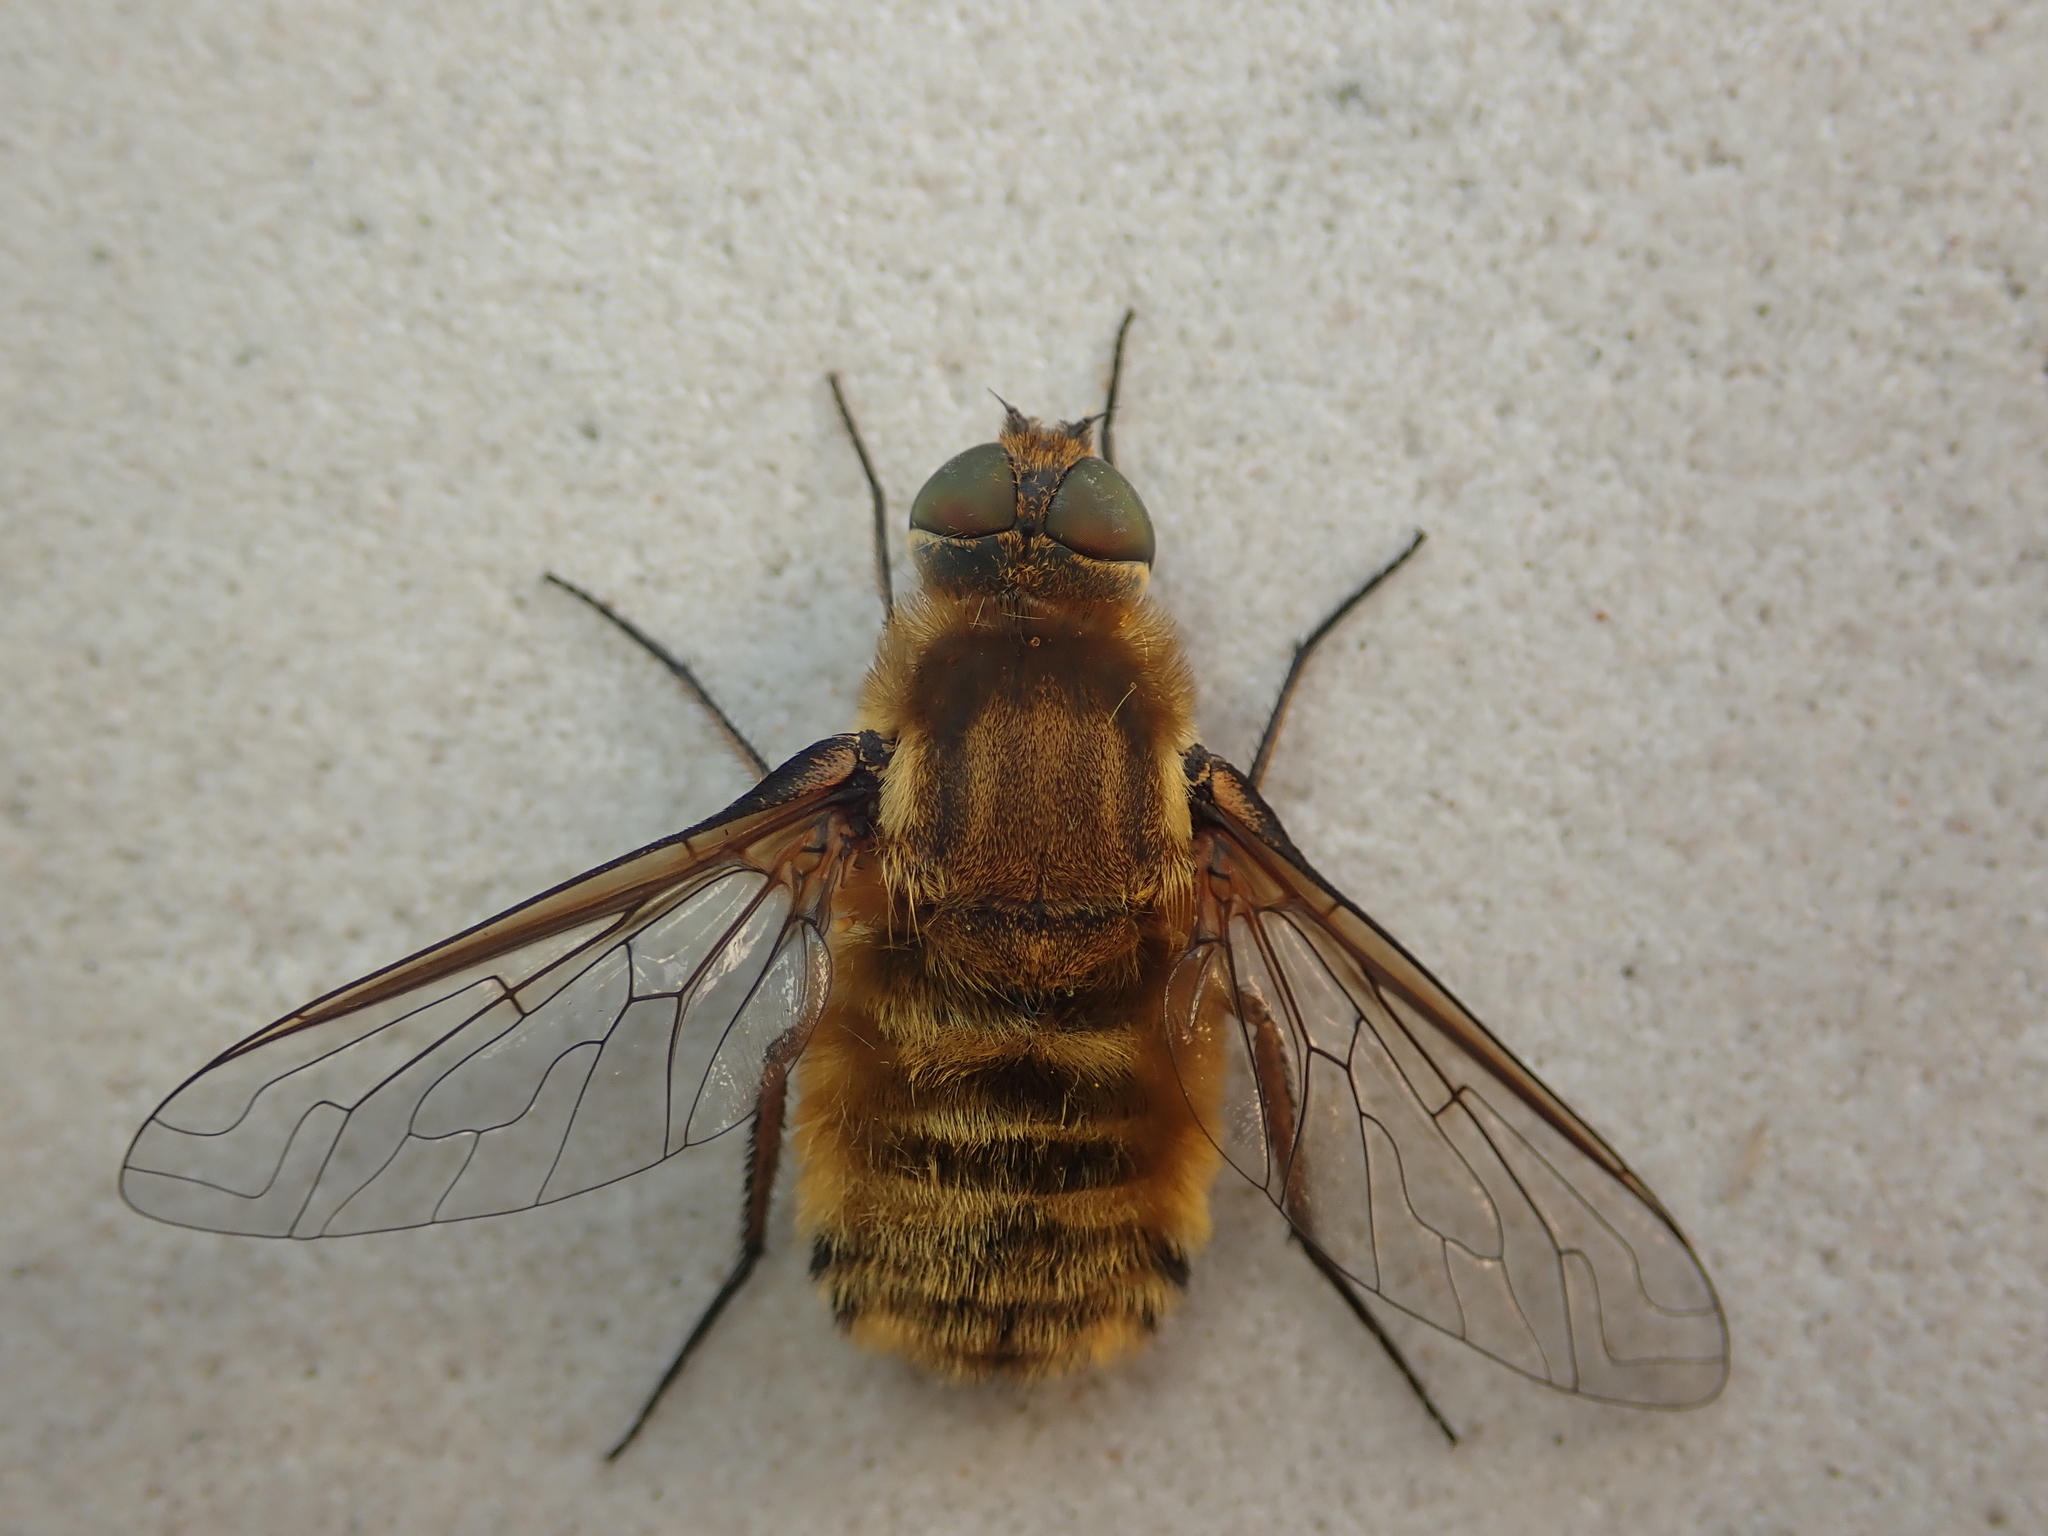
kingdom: Animalia
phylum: Arthropoda
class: Insecta
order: Diptera
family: Bombyliidae
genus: Villa
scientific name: Villa hottentotta
